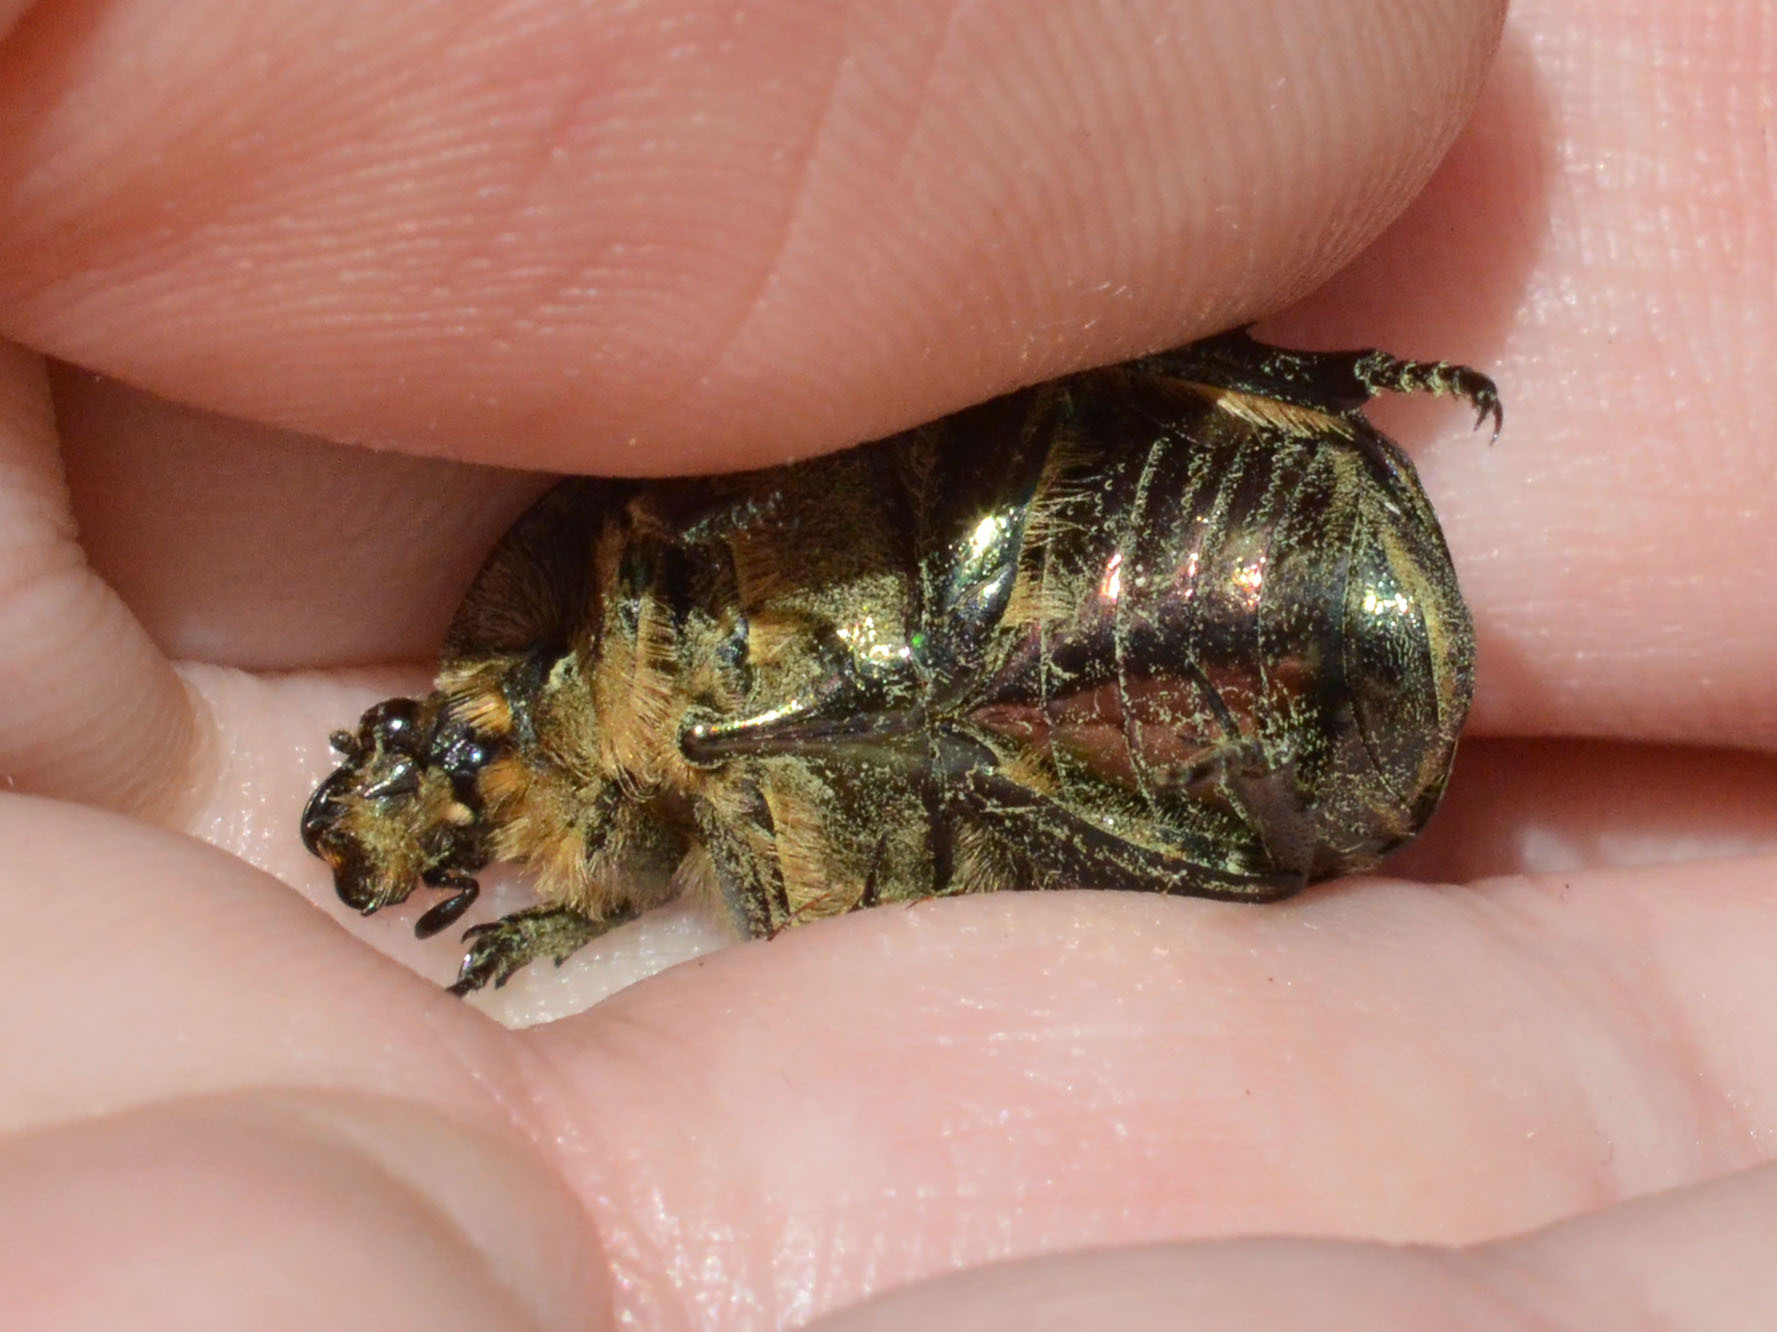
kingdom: Animalia
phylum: Arthropoda
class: Insecta
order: Coleoptera
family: Scarabaeidae
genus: Cetonia
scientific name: Cetonia aurata
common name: Rose chafer
